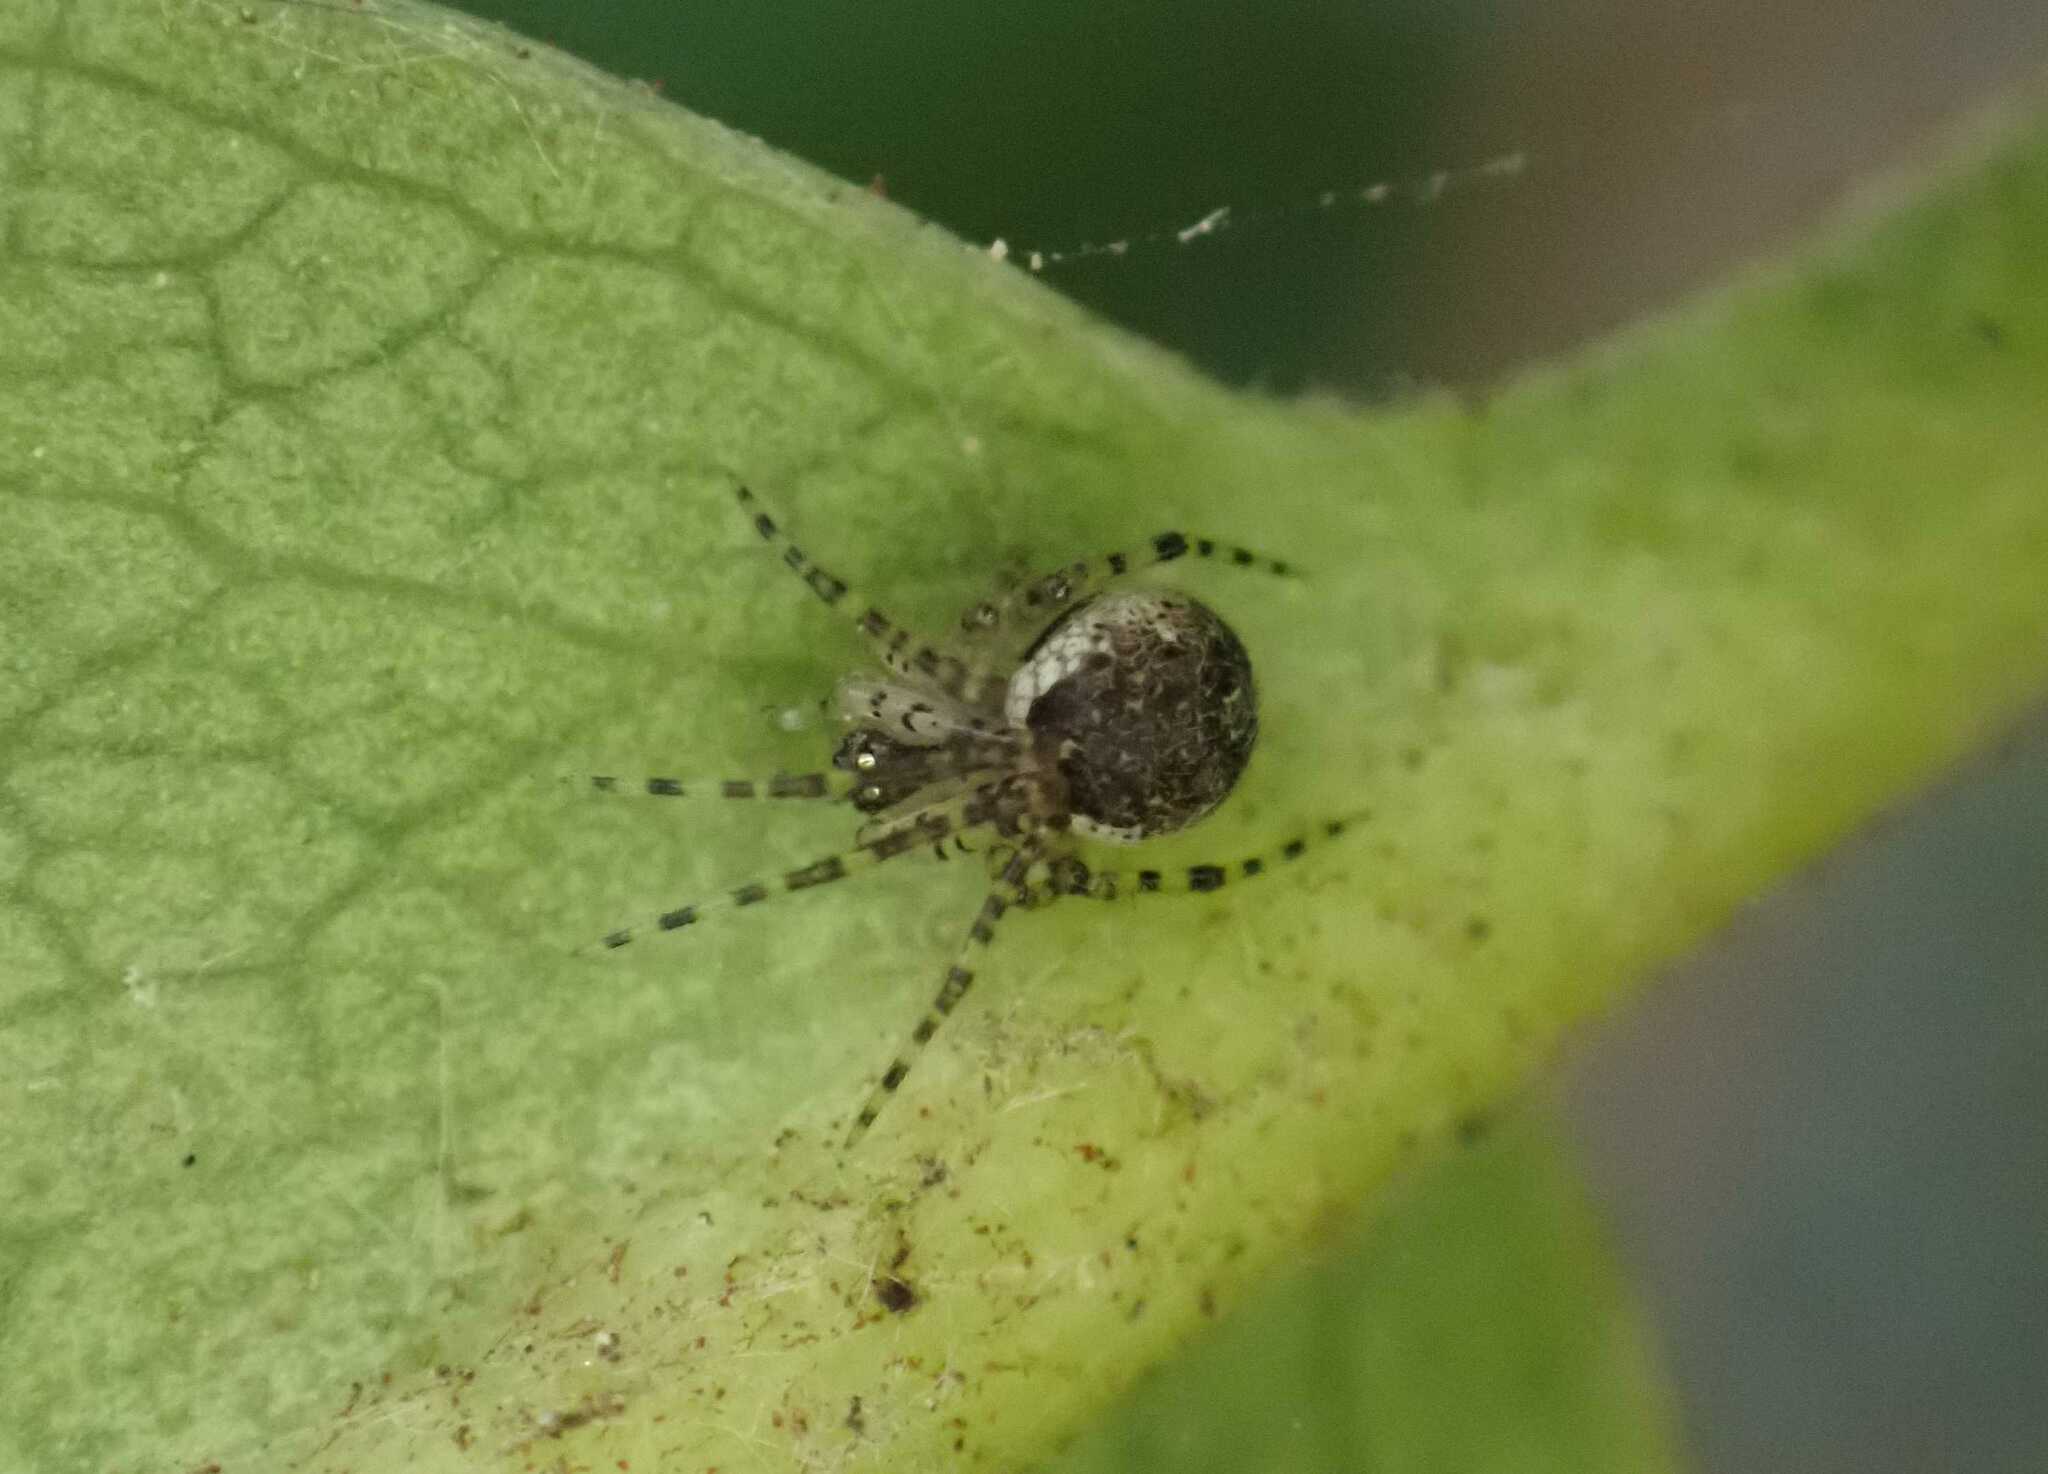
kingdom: Animalia
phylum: Arthropoda
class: Arachnida
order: Araneae
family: Theridiidae
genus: Platnickina
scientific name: Platnickina tincta
